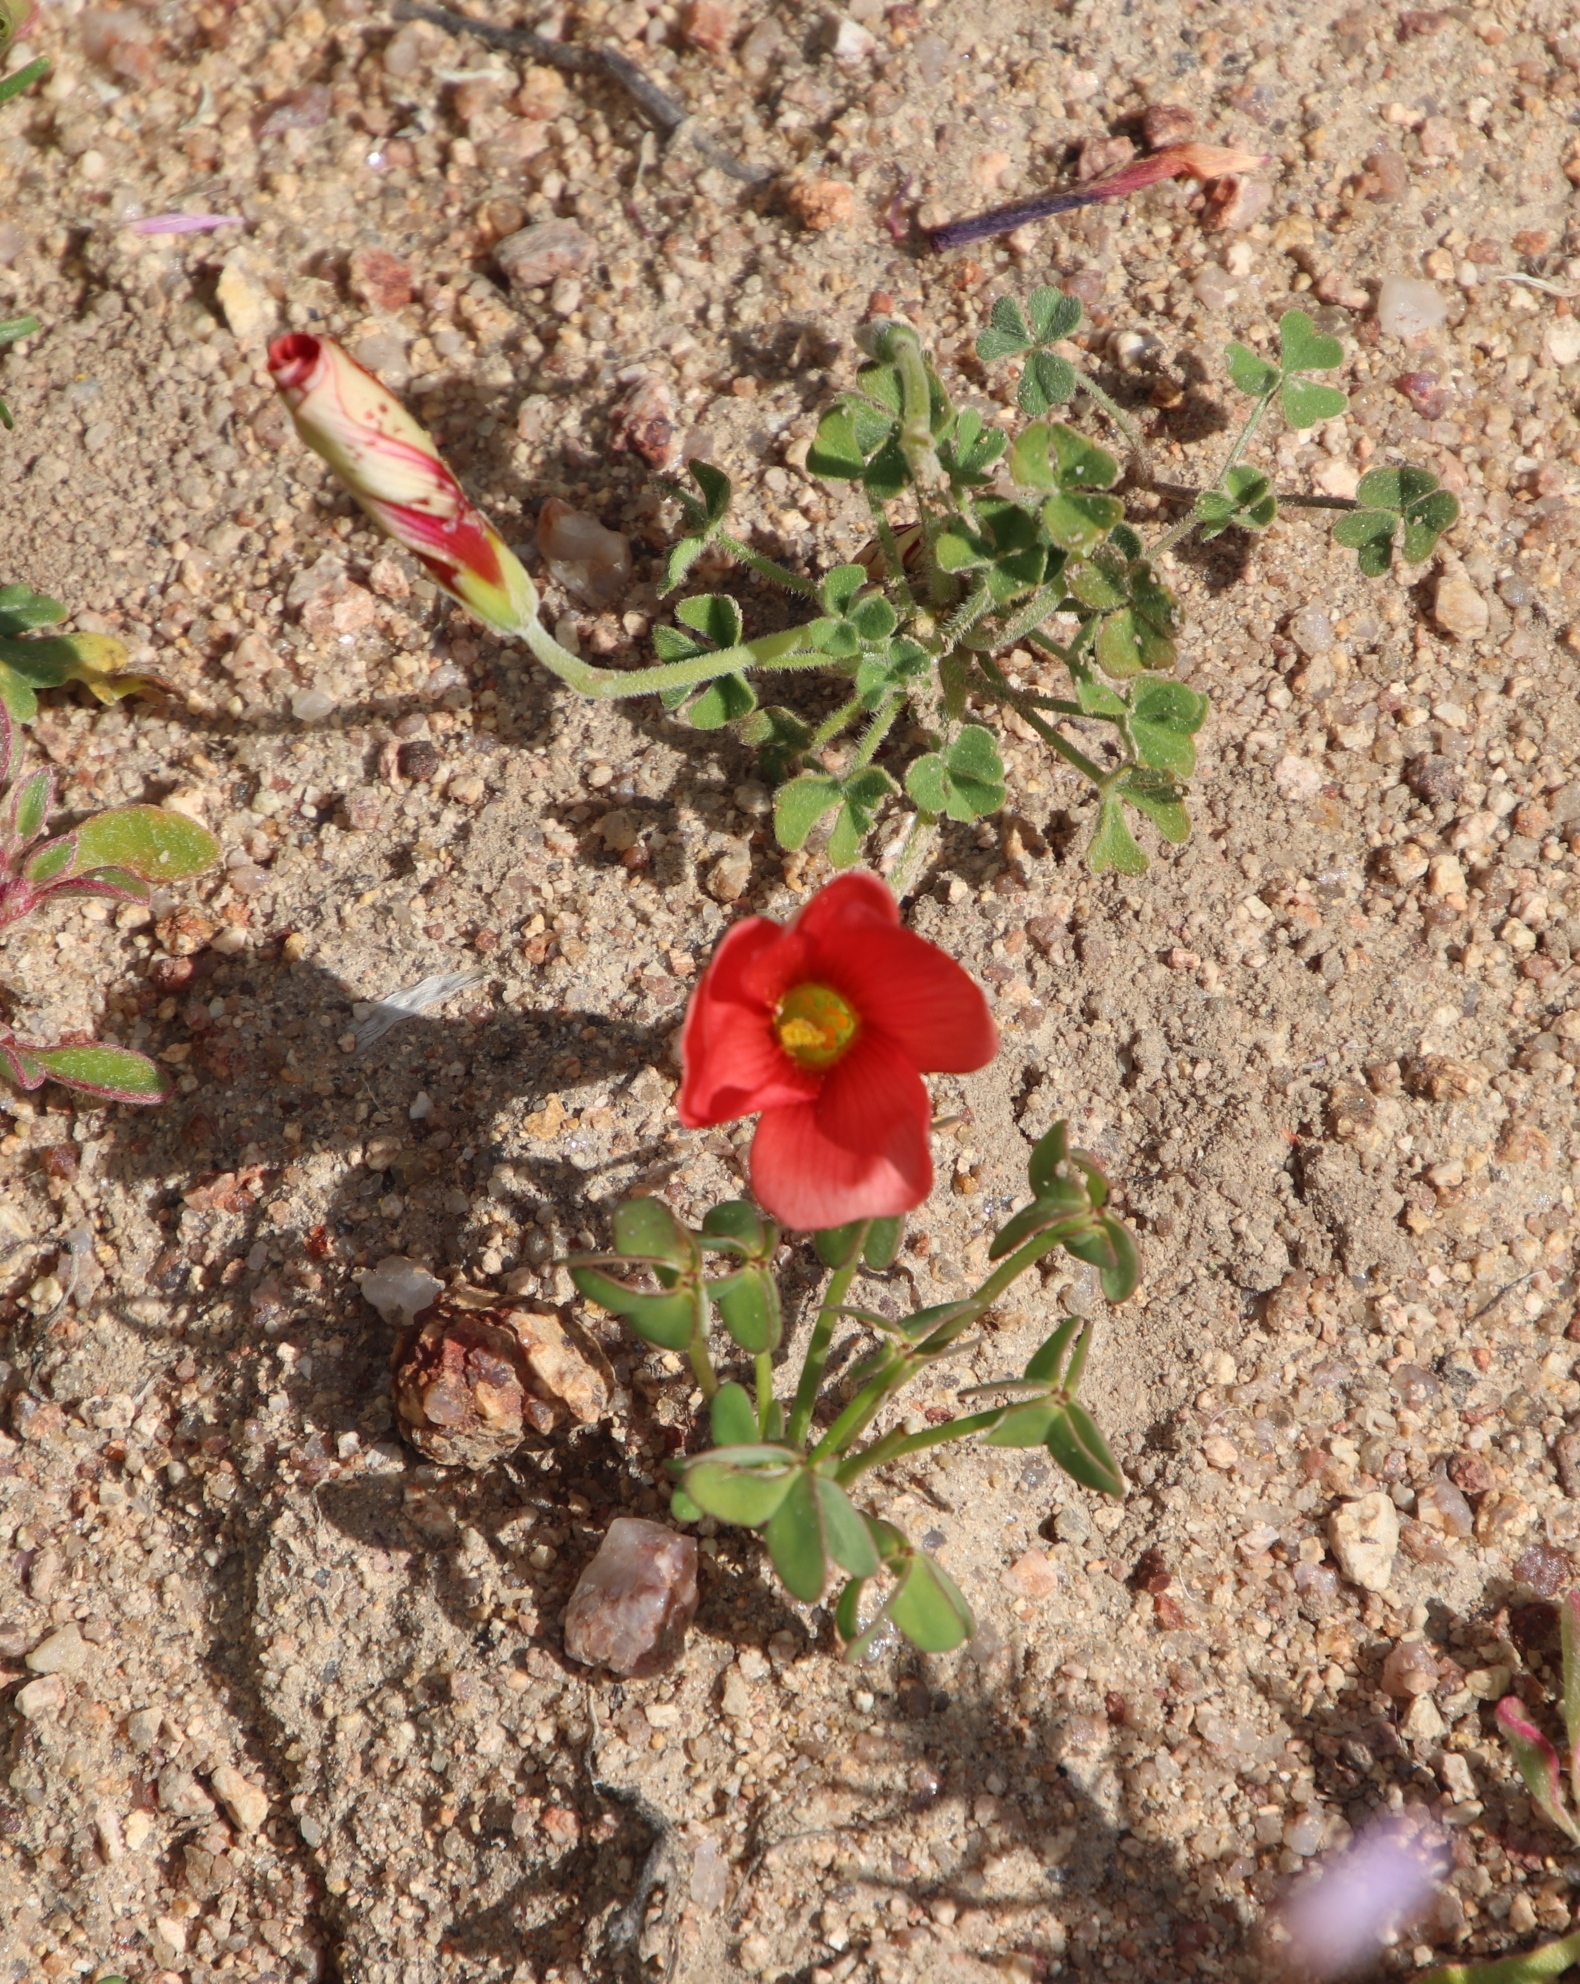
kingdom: Plantae
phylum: Tracheophyta
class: Magnoliopsida
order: Oxalidales
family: Oxalidaceae
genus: Oxalis
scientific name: Oxalis obtusa
